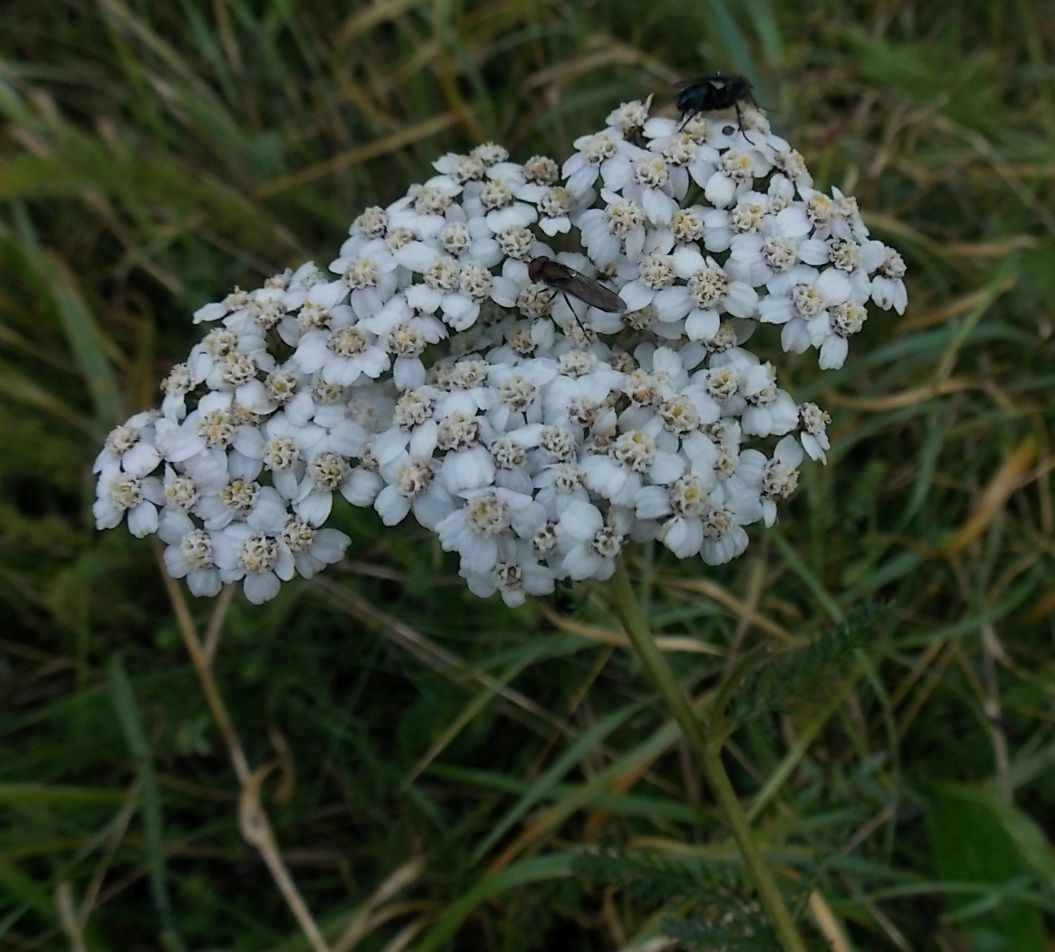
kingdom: Plantae
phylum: Tracheophyta
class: Magnoliopsida
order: Asterales
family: Asteraceae
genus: Achillea
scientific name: Achillea millefolium
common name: Yarrow
